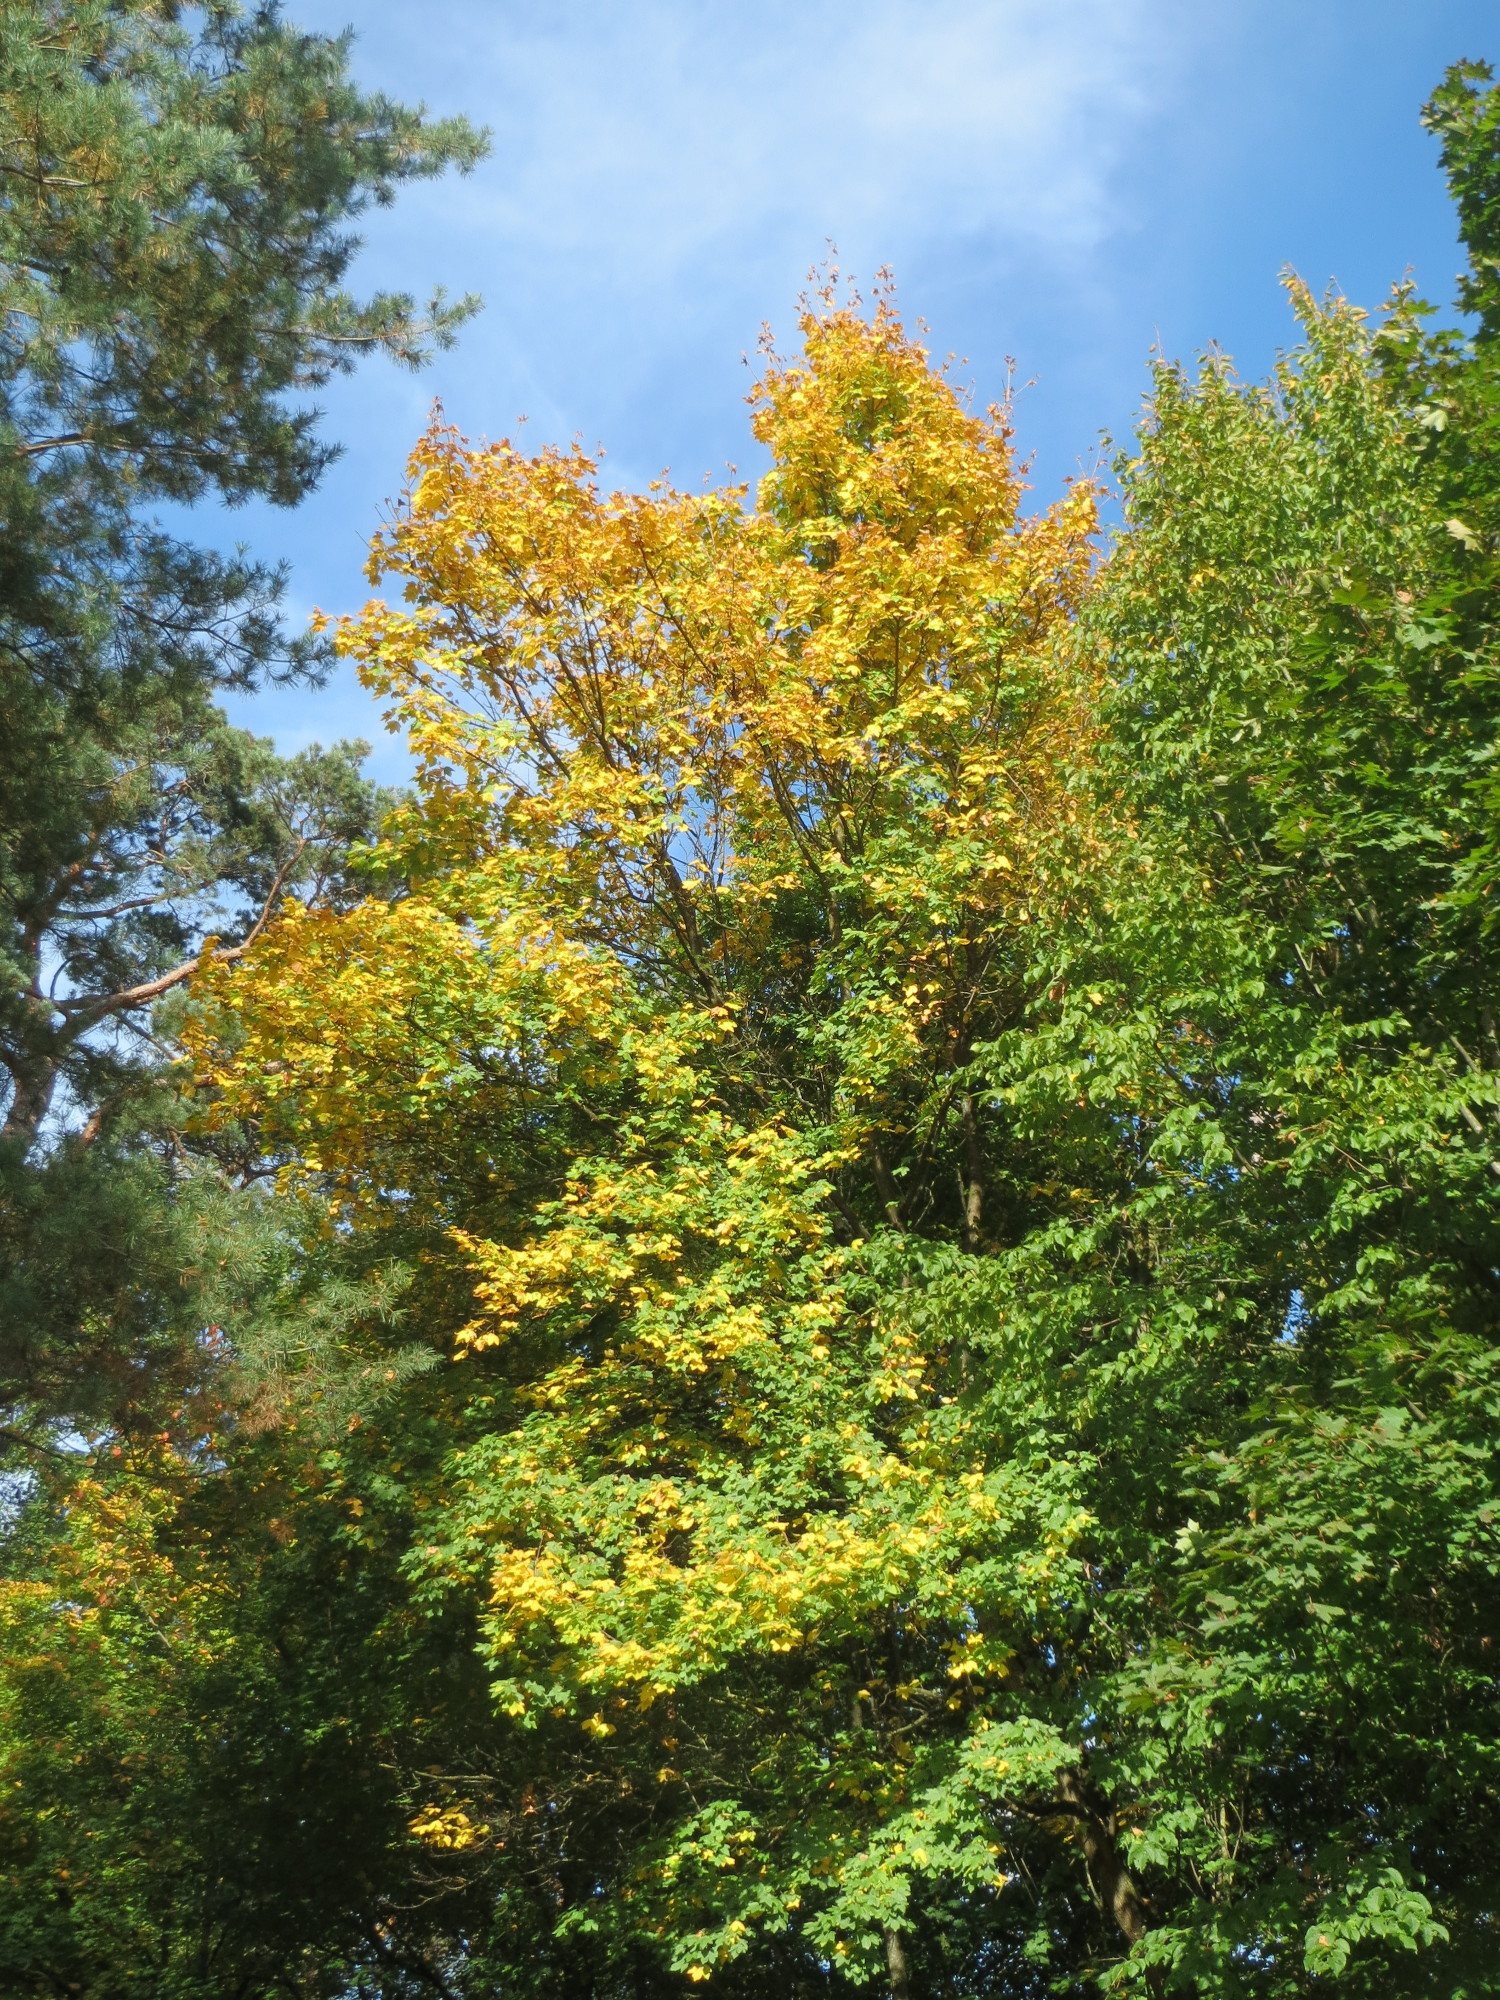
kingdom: Plantae
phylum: Tracheophyta
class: Magnoliopsida
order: Sapindales
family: Sapindaceae
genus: Acer
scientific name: Acer campestre
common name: Field maple
